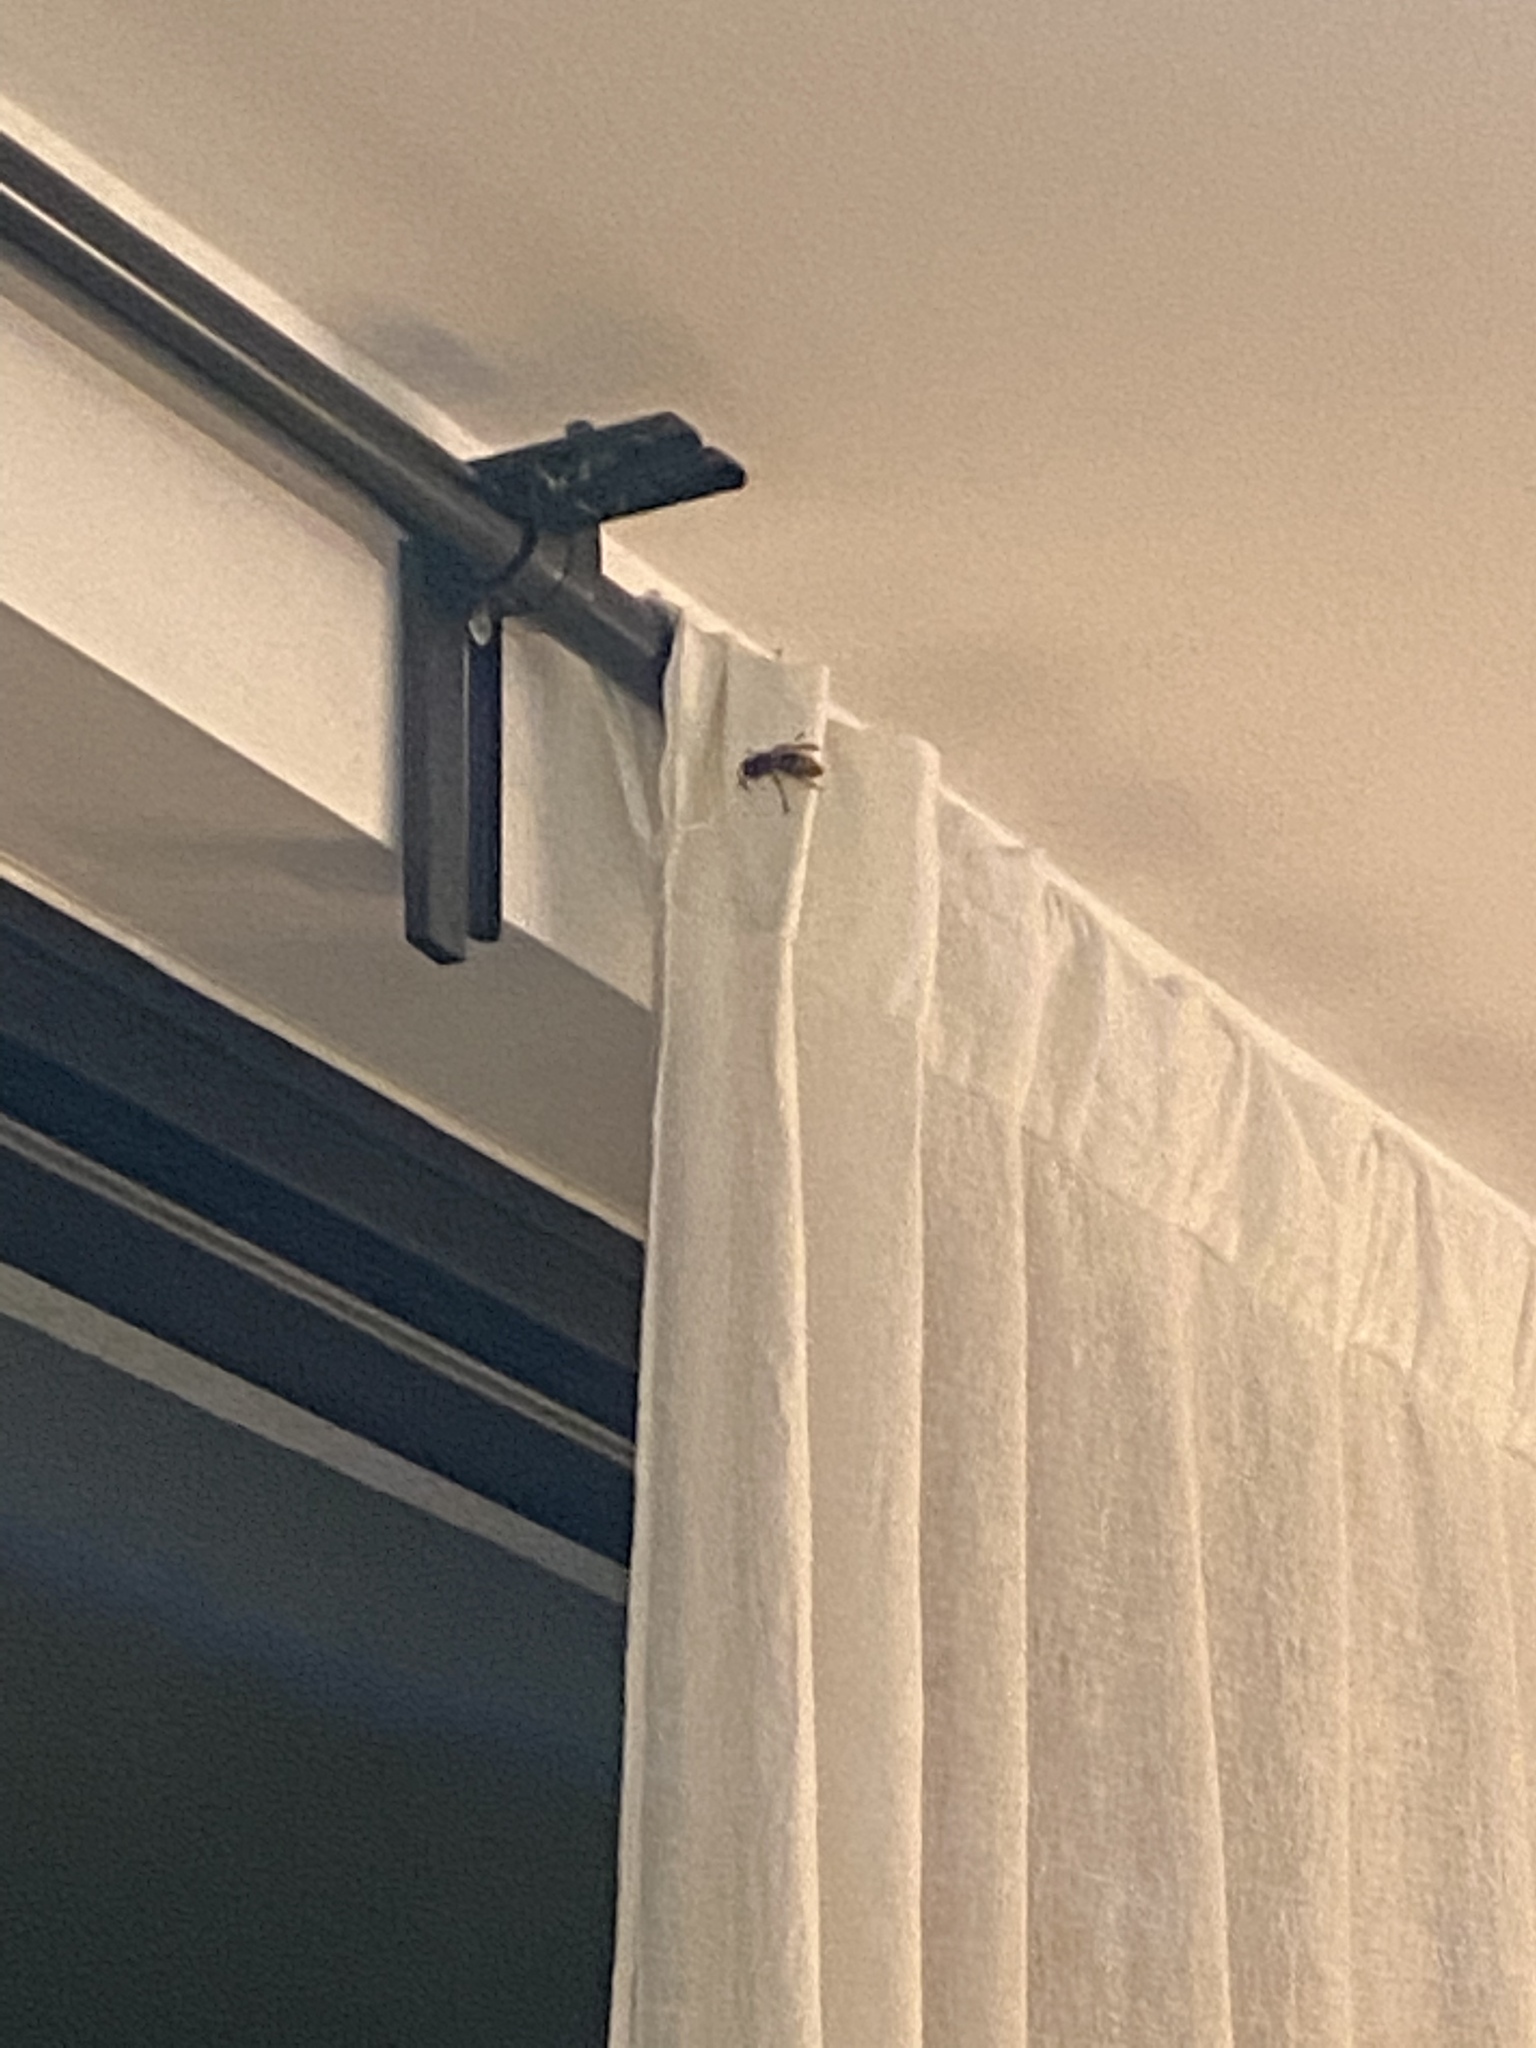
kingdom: Animalia
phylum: Arthropoda
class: Insecta
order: Hymenoptera
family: Vespidae
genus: Vespa
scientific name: Vespa crabro
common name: Hornet
